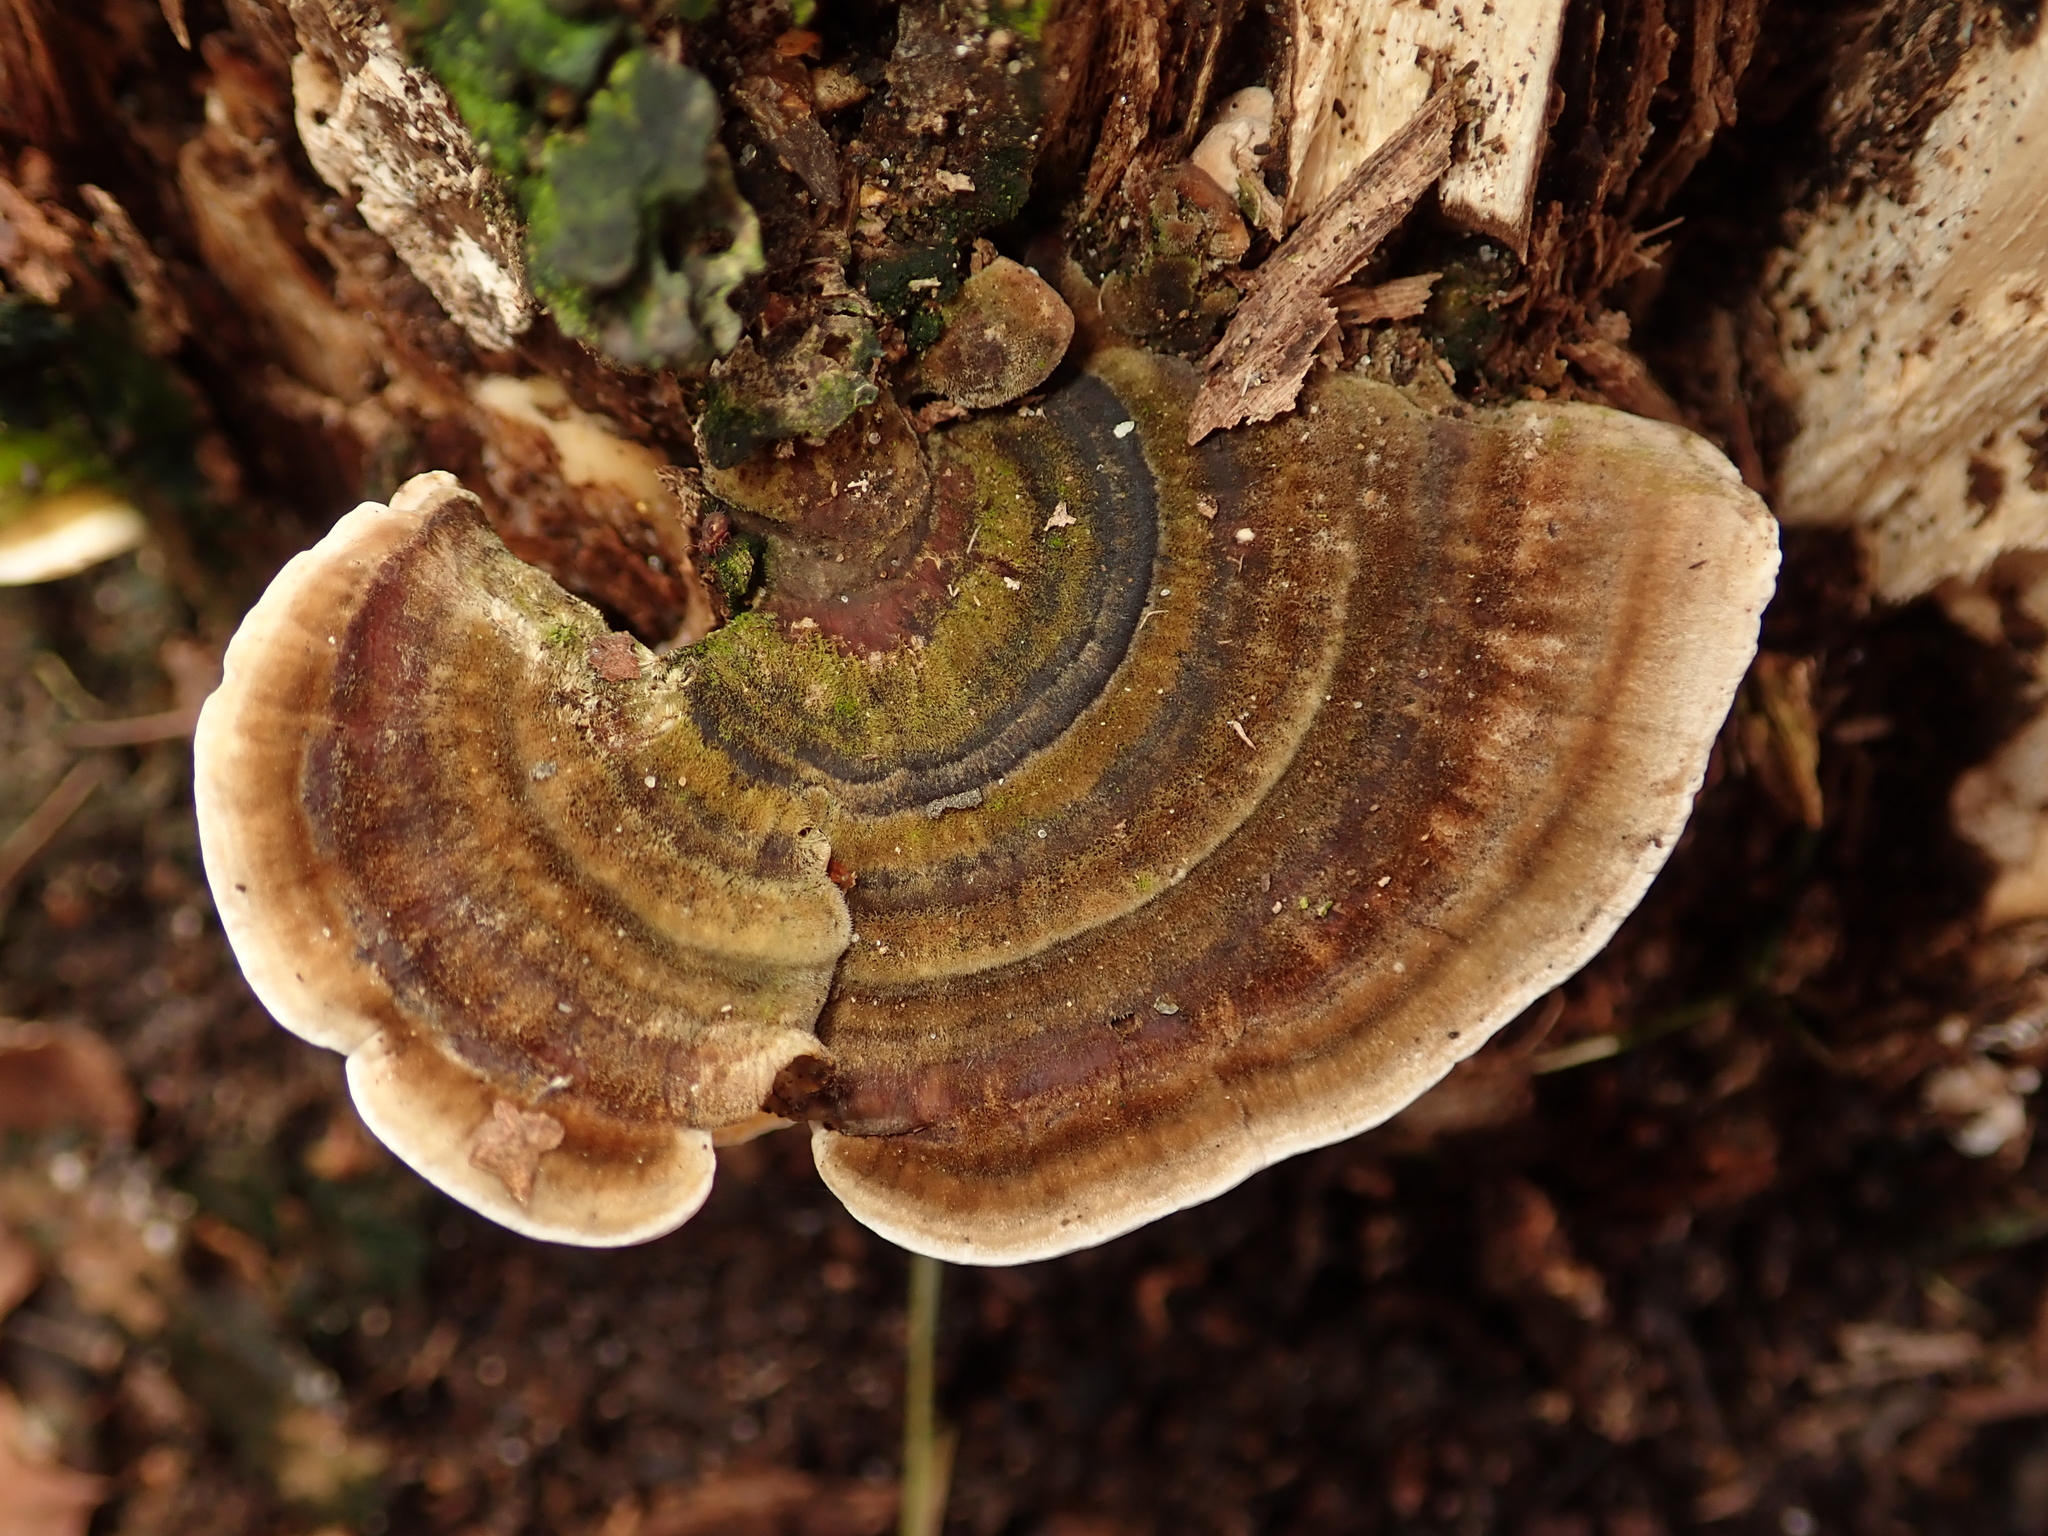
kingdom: Fungi
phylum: Basidiomycota
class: Agaricomycetes
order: Polyporales
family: Polyporaceae
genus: Trametes
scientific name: Trametes versicolor
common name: Turkeytail
